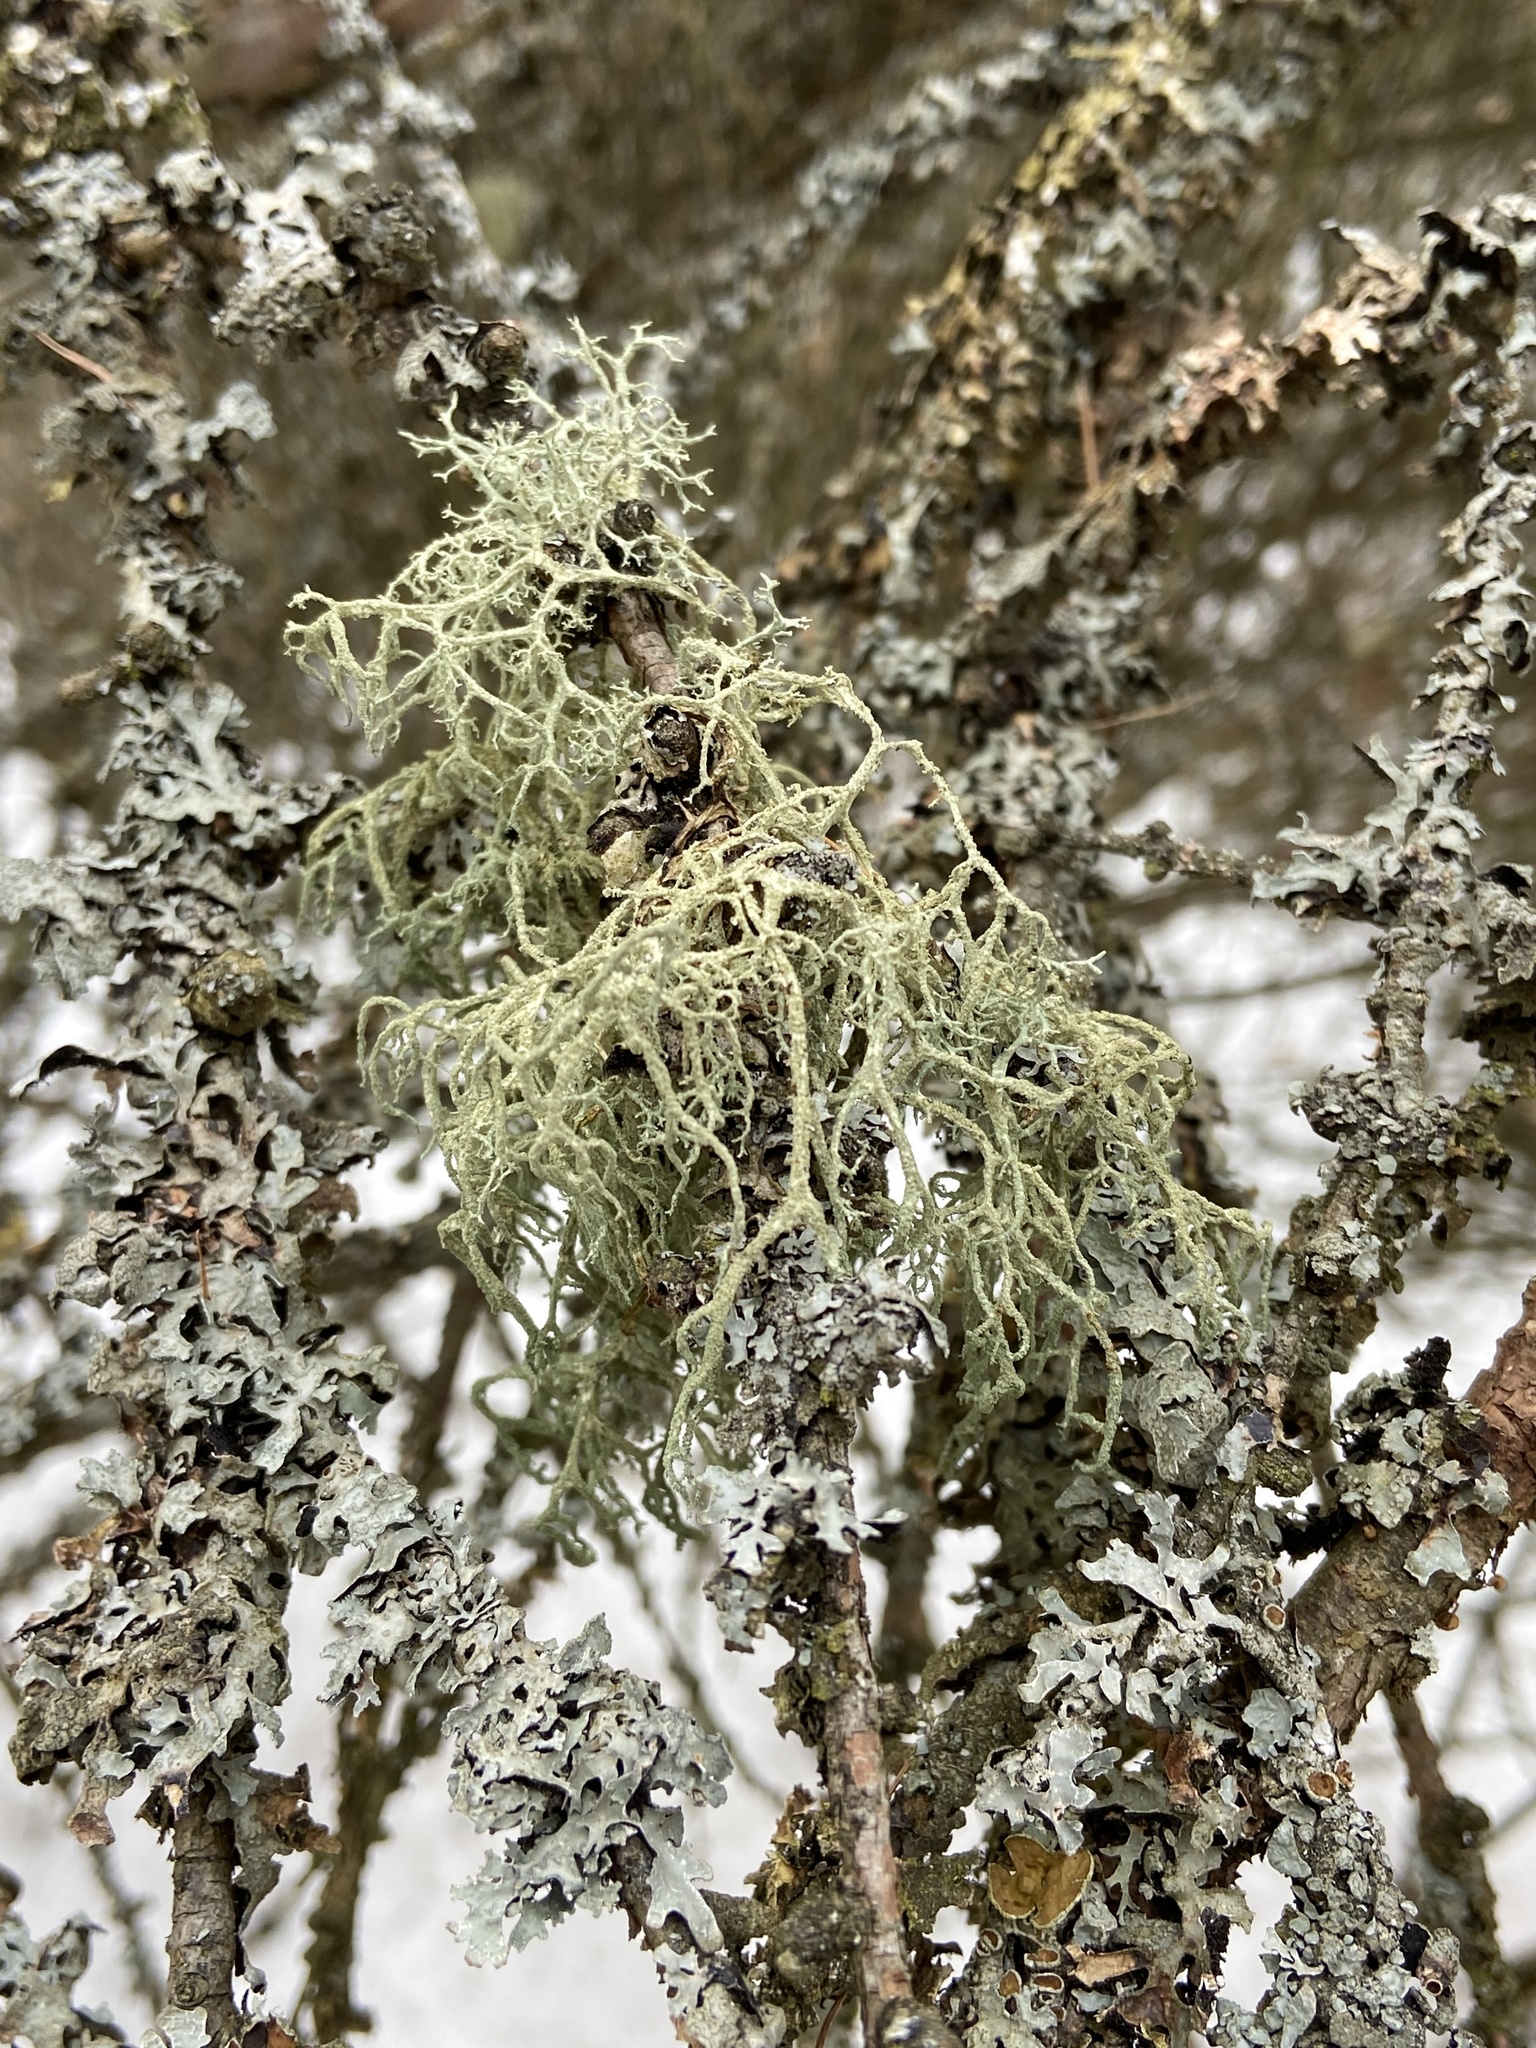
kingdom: Fungi
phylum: Ascomycota
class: Lecanoromycetes
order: Lecanorales
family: Parmeliaceae
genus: Evernia
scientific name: Evernia mesomorpha
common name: Boreal oak moss lichen
